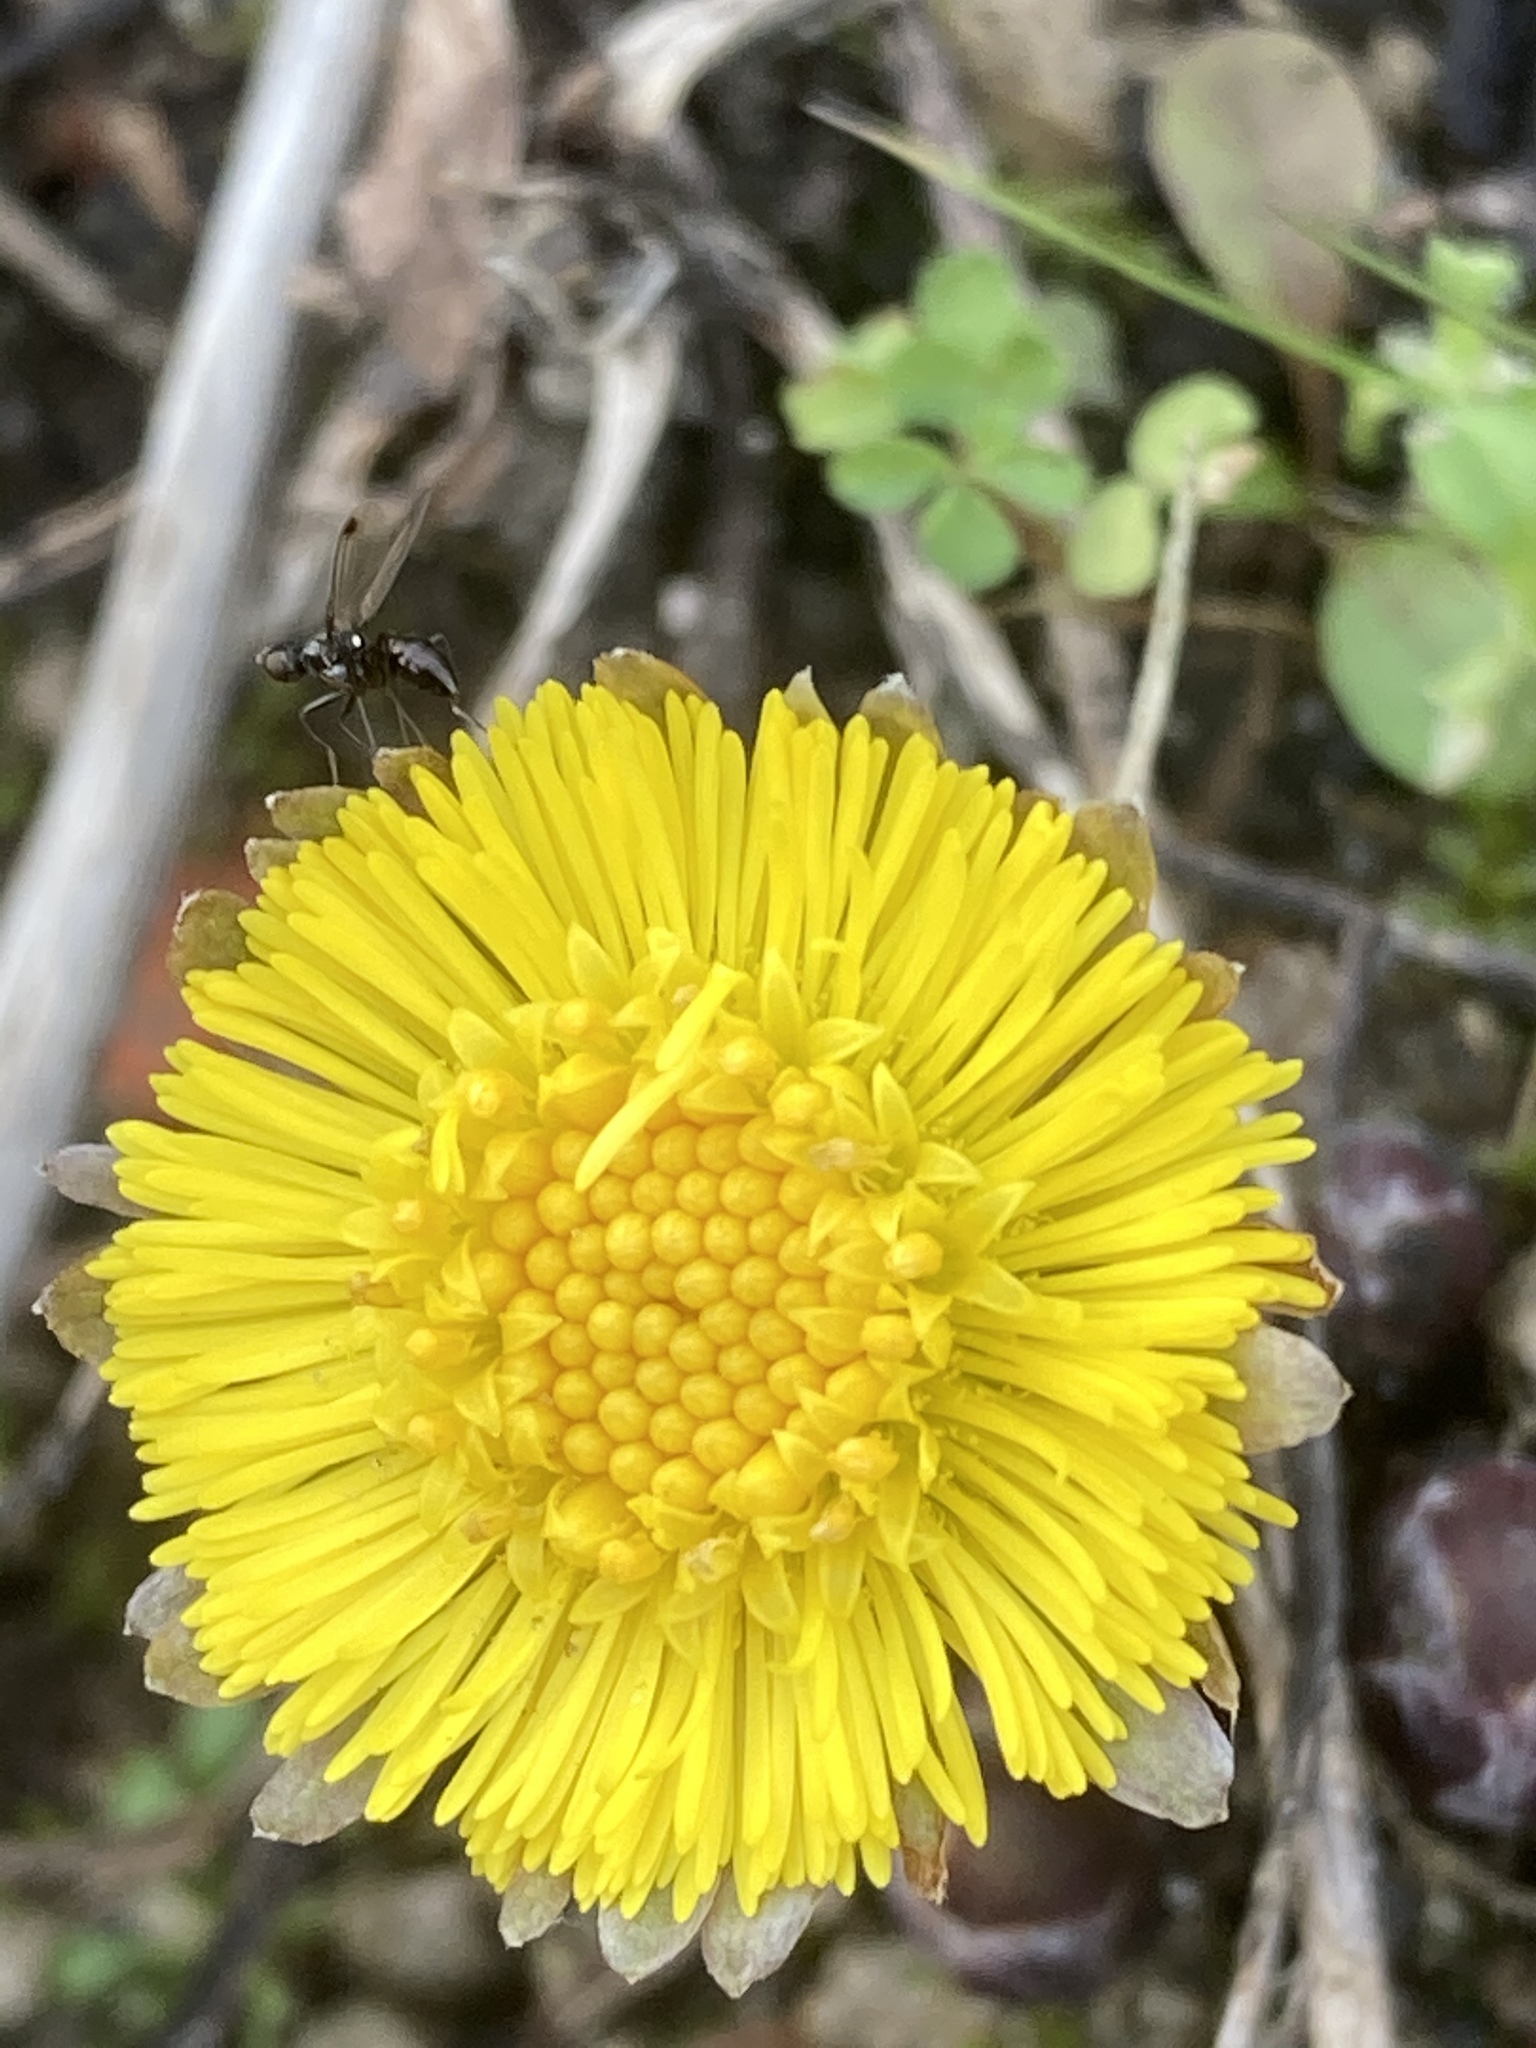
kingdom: Plantae
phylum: Tracheophyta
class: Magnoliopsida
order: Asterales
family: Asteraceae
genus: Tussilago
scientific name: Tussilago farfara
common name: Coltsfoot
